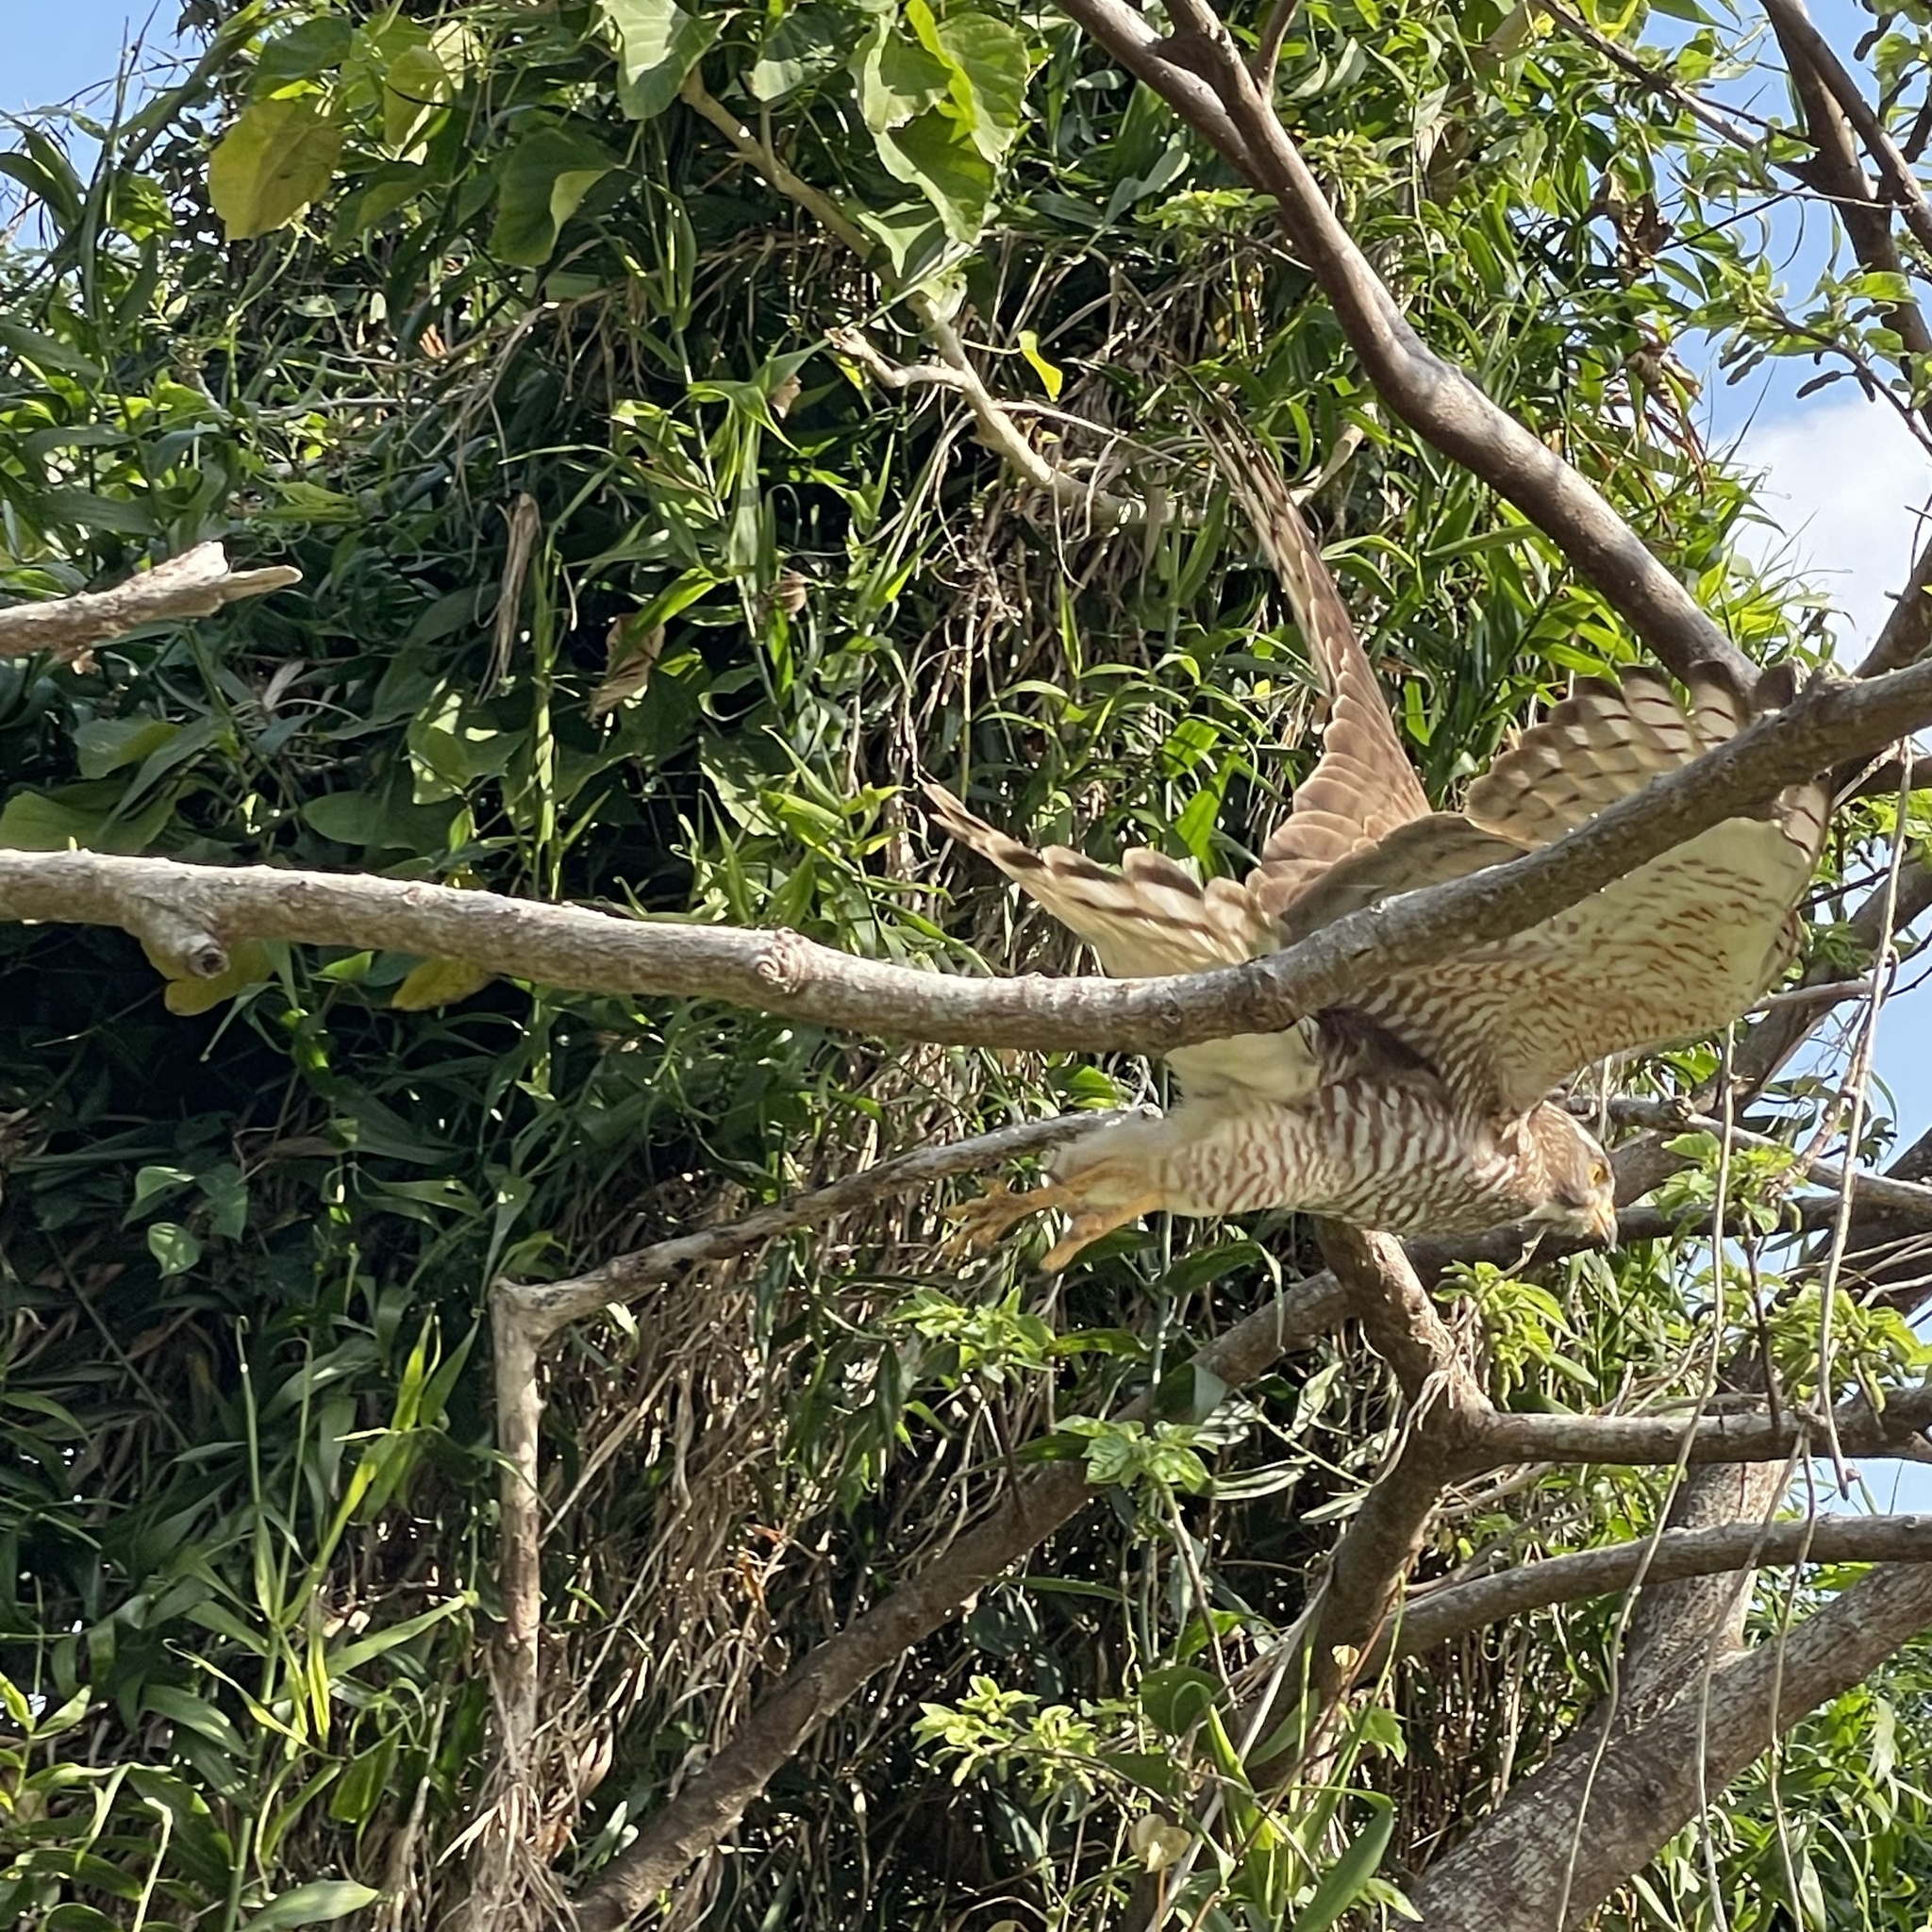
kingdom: Animalia
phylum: Chordata
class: Aves
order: Accipitriformes
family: Accipitridae
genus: Butastur
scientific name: Butastur indicus
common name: Grey-faced buzzard
